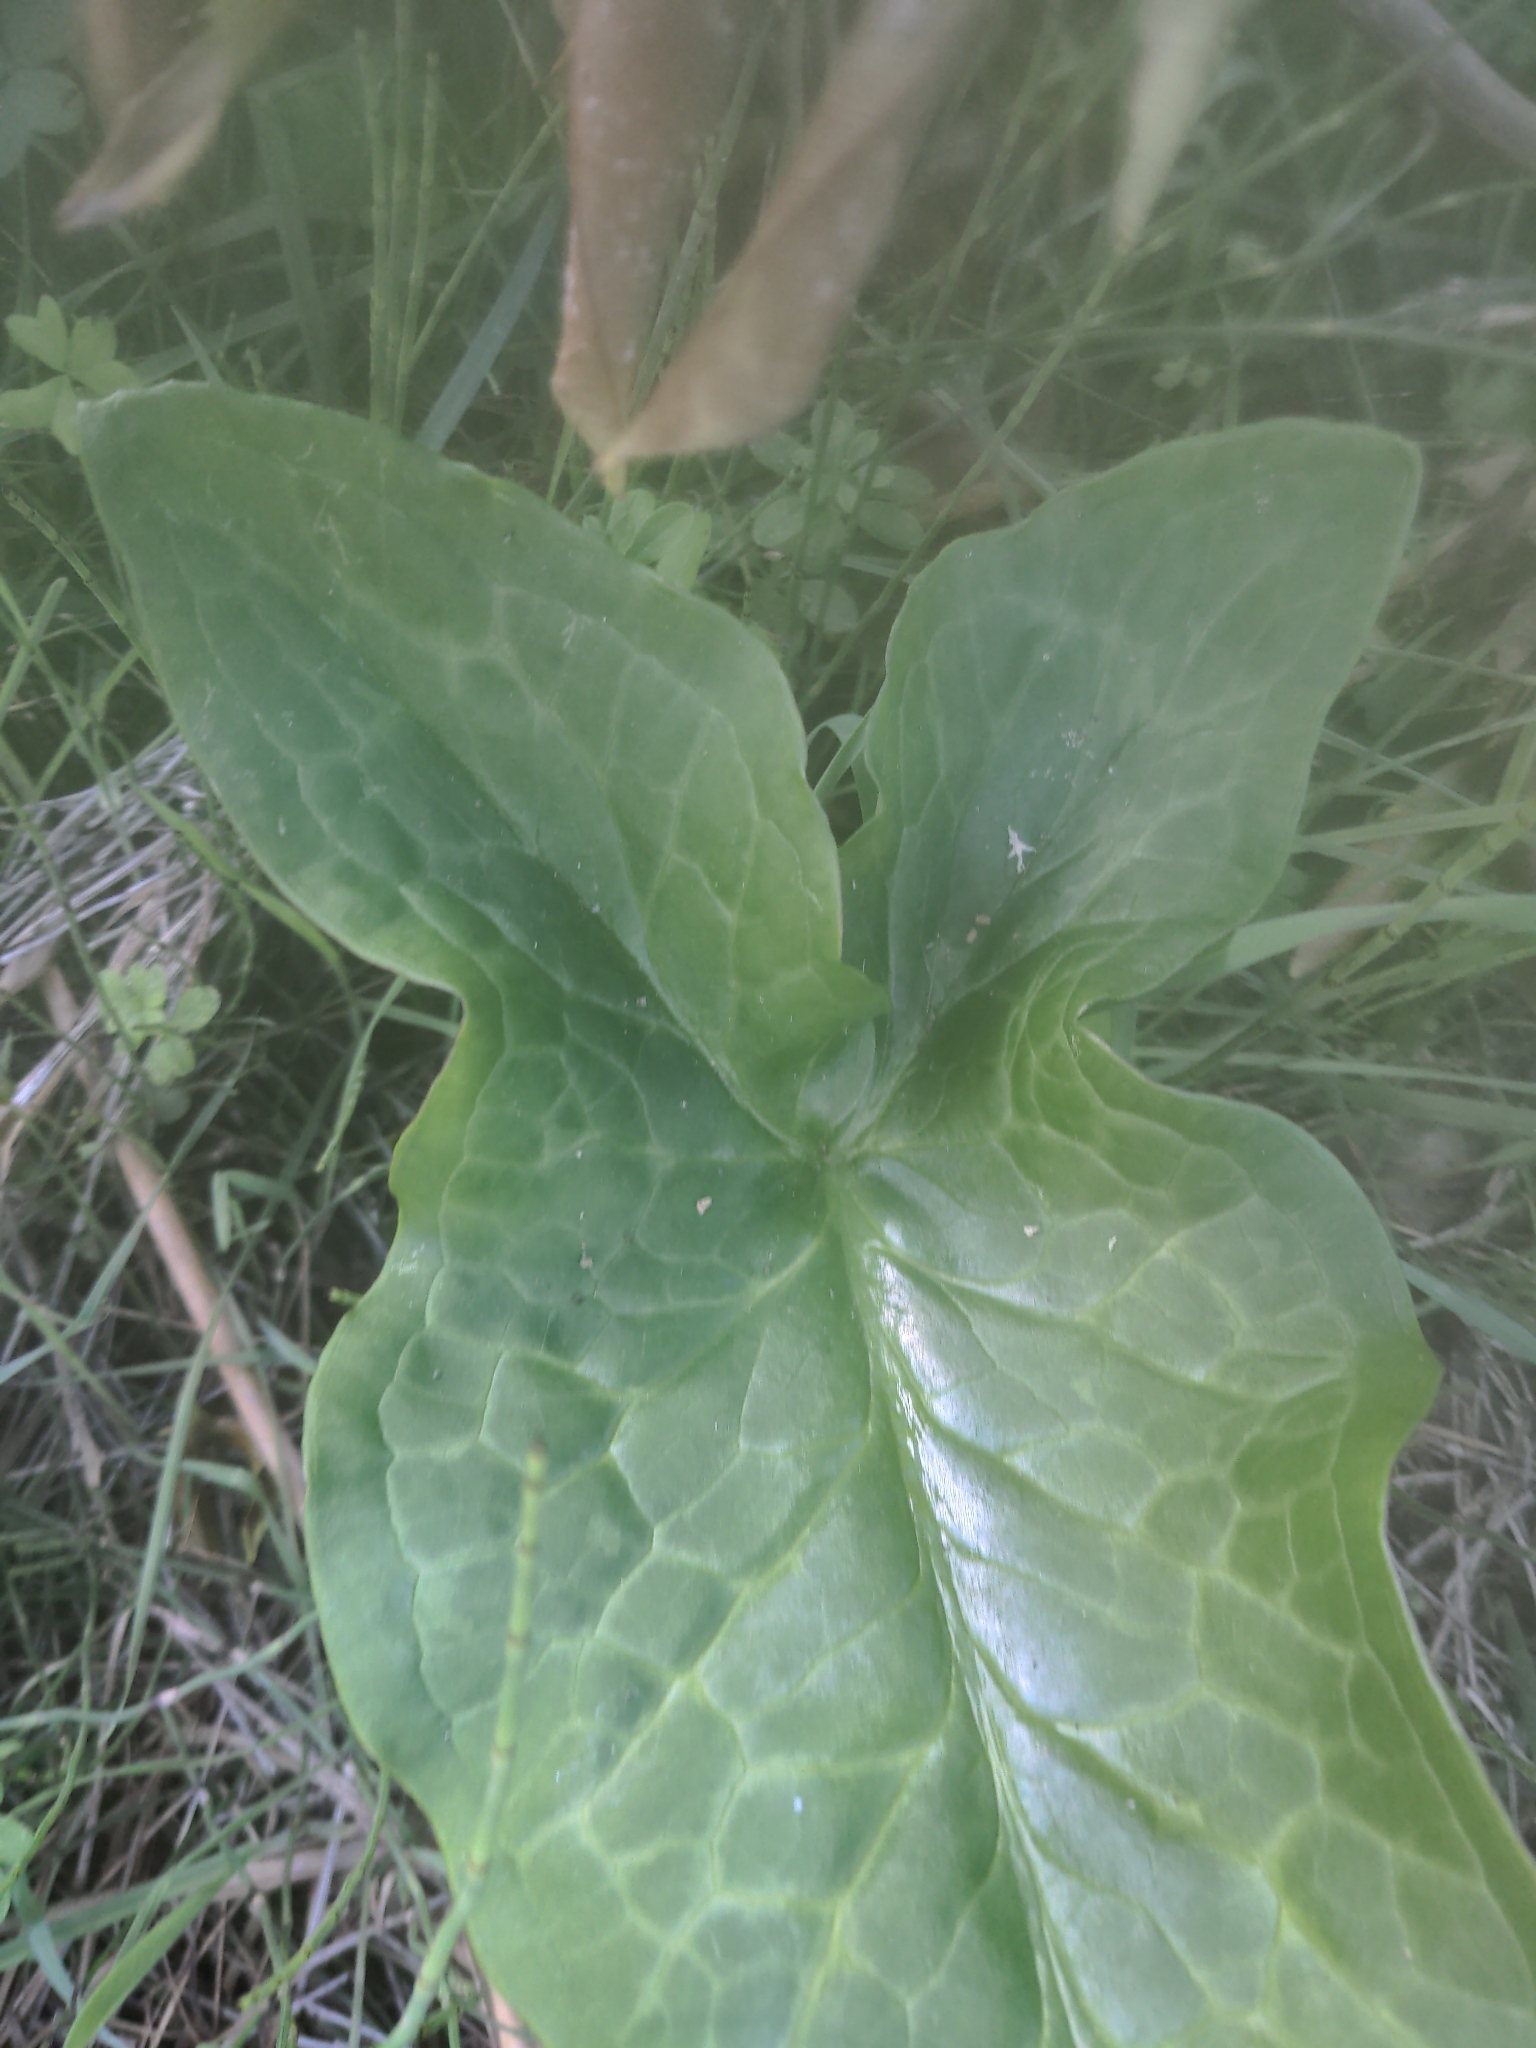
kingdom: Plantae
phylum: Tracheophyta
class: Liliopsida
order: Alismatales
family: Araceae
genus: Arum
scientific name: Arum italicum
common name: Italian lords-and-ladies
